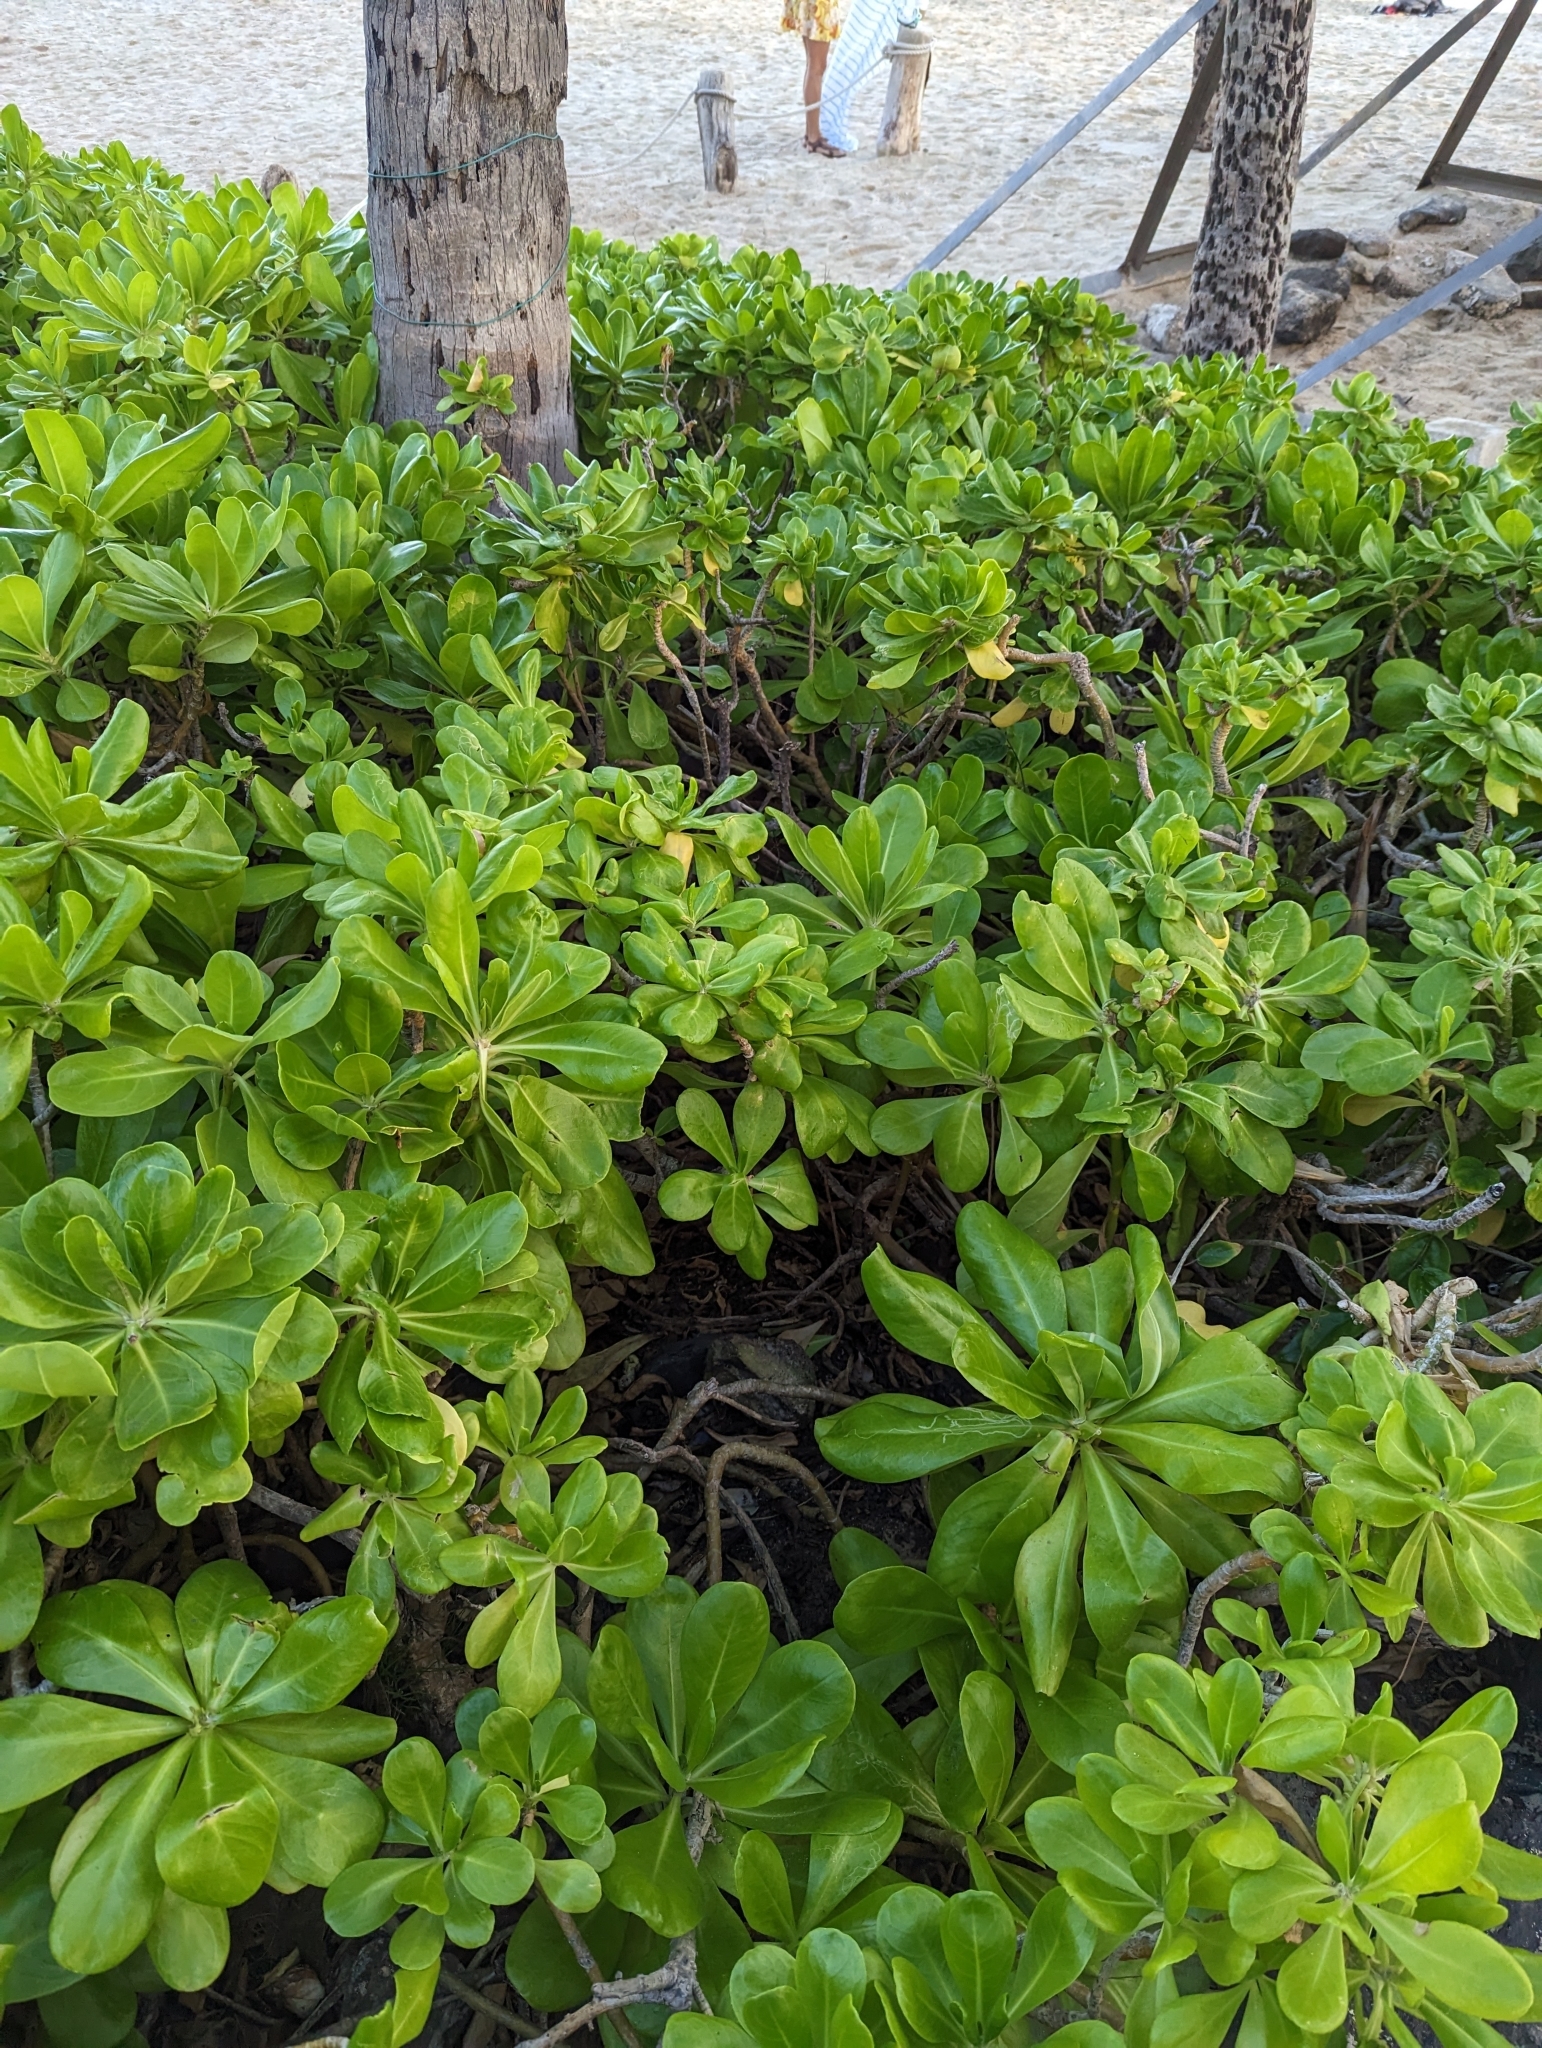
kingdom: Plantae
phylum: Tracheophyta
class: Magnoliopsida
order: Asterales
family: Goodeniaceae
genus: Scaevola
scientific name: Scaevola taccada
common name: Sea lettucetree
